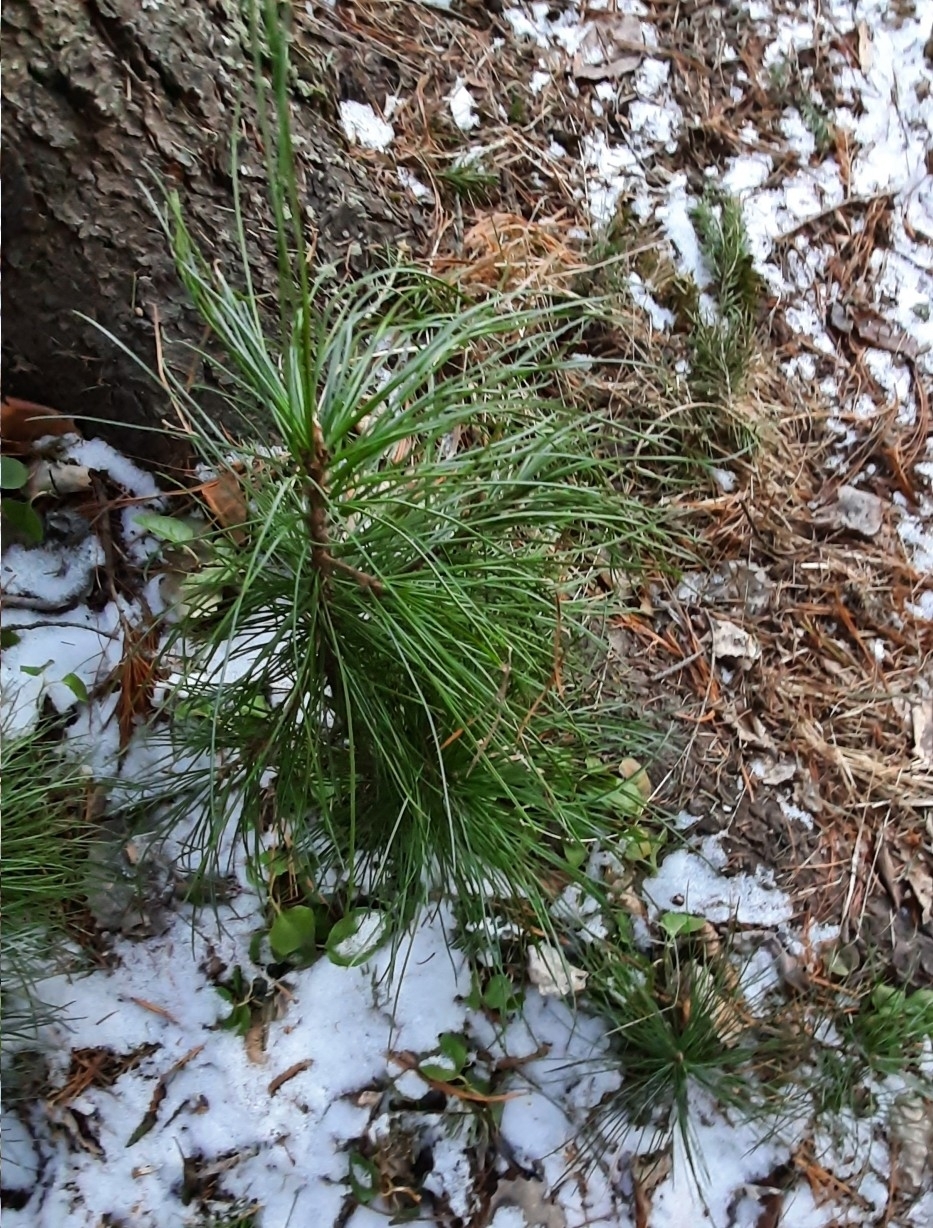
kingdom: Plantae
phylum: Tracheophyta
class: Pinopsida
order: Pinales
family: Pinaceae
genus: Pinus
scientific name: Pinus sibirica
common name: Siberian pine
